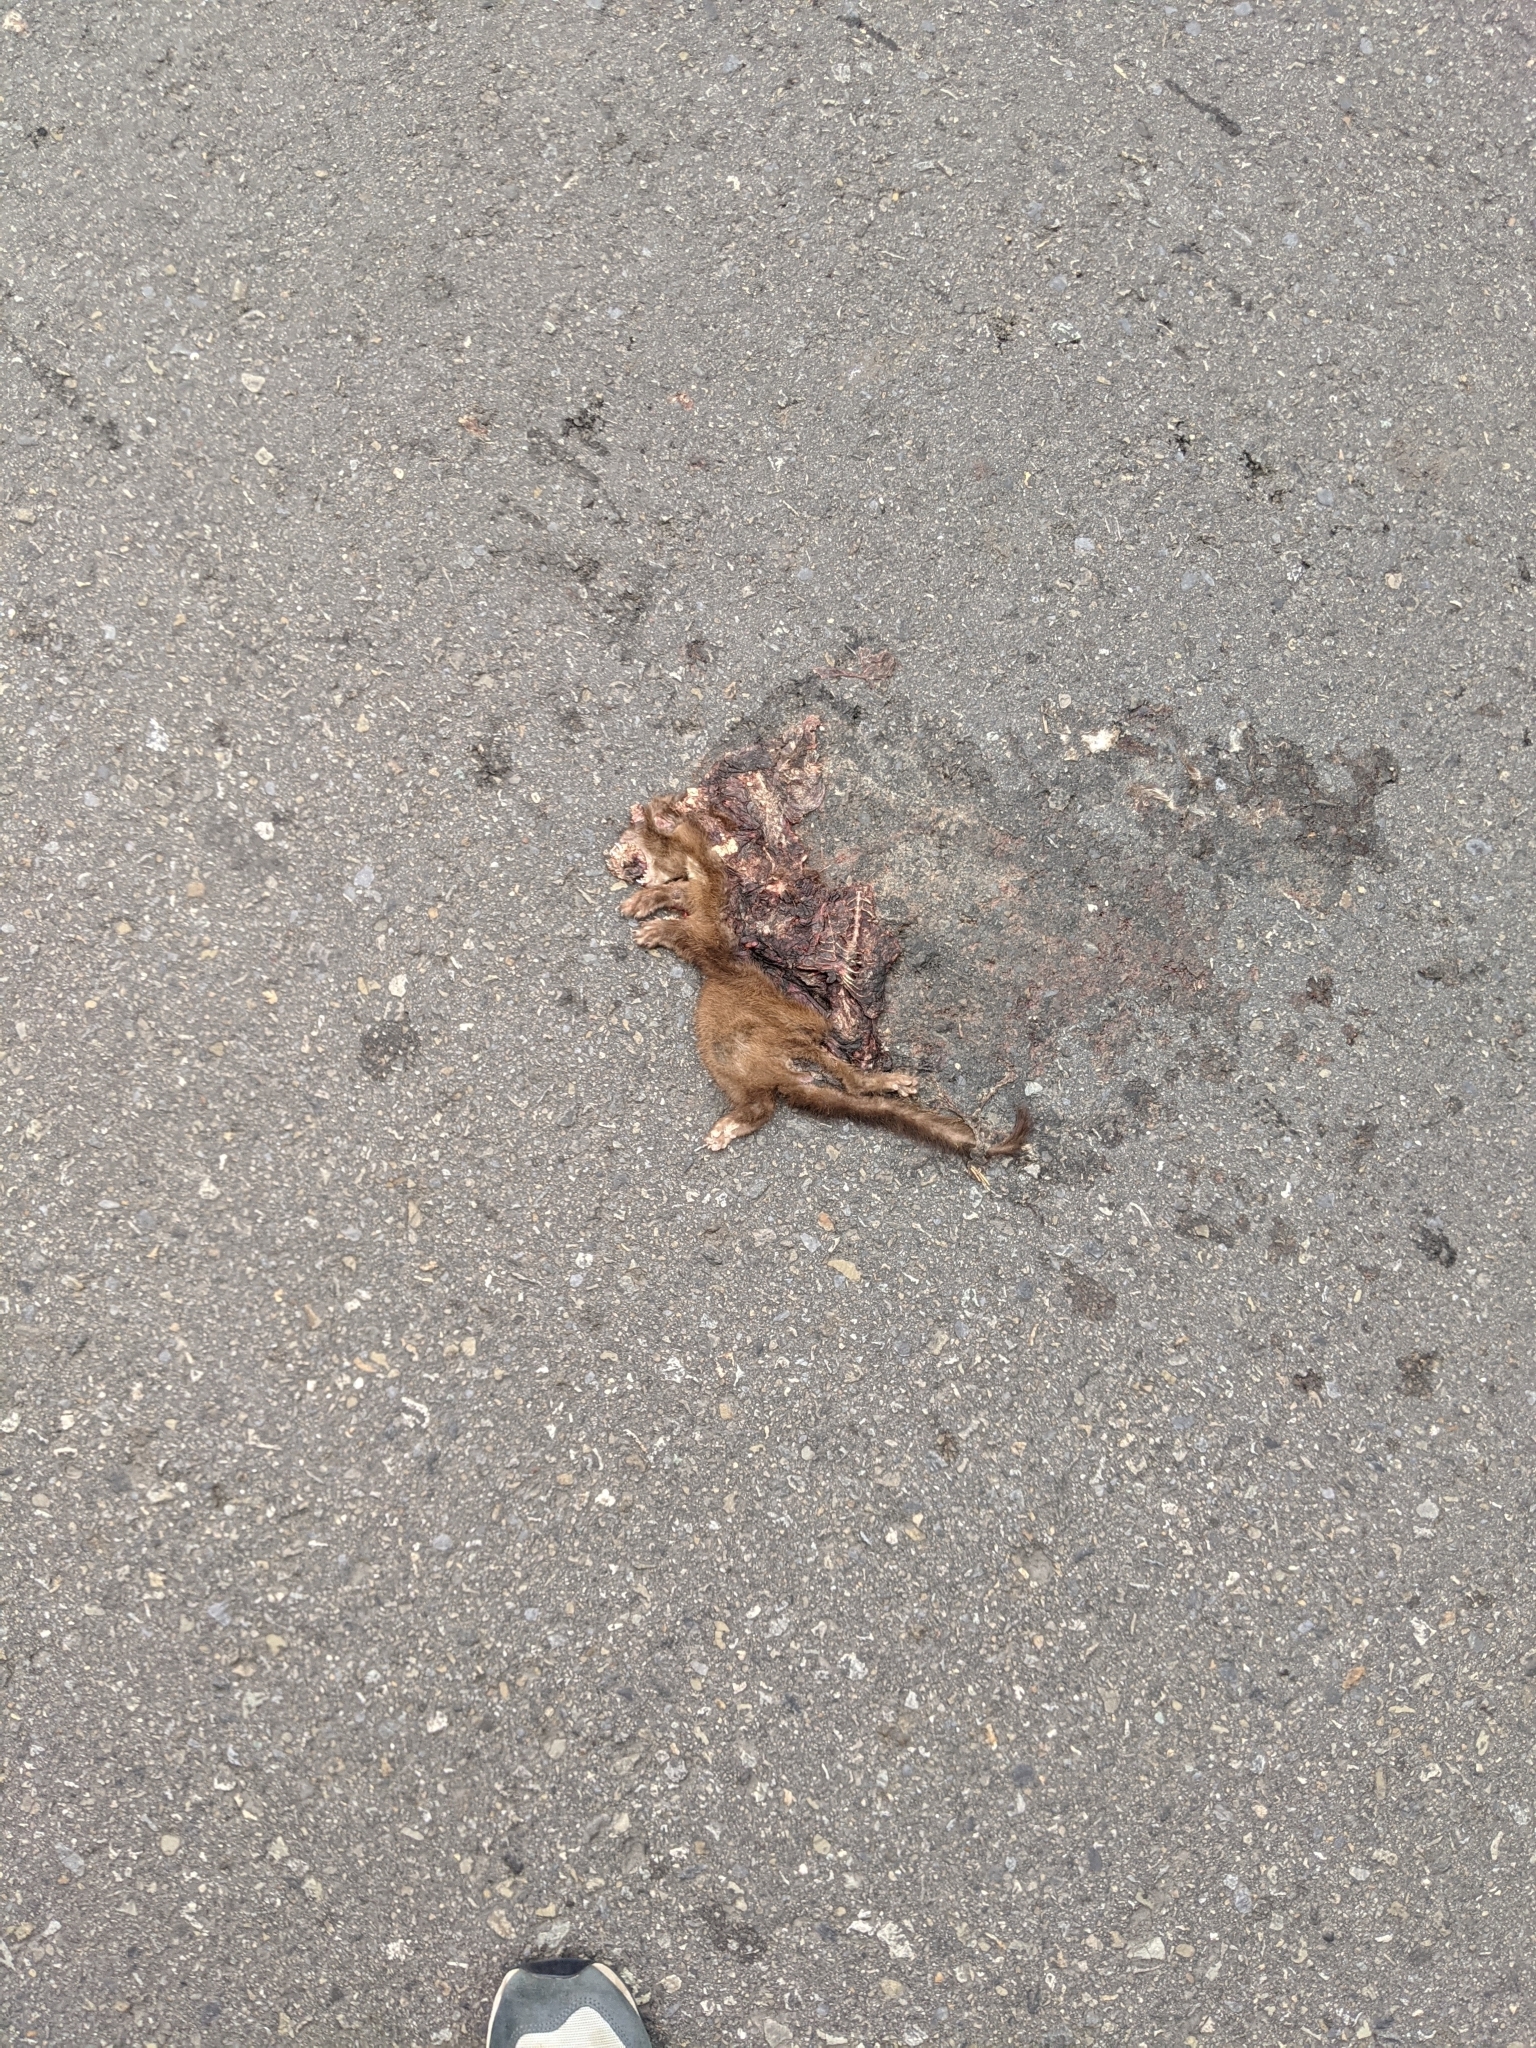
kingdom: Animalia
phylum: Chordata
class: Mammalia
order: Carnivora
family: Mustelidae
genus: Mustela
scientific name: Mustela sibirica
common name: Siberian weasel
